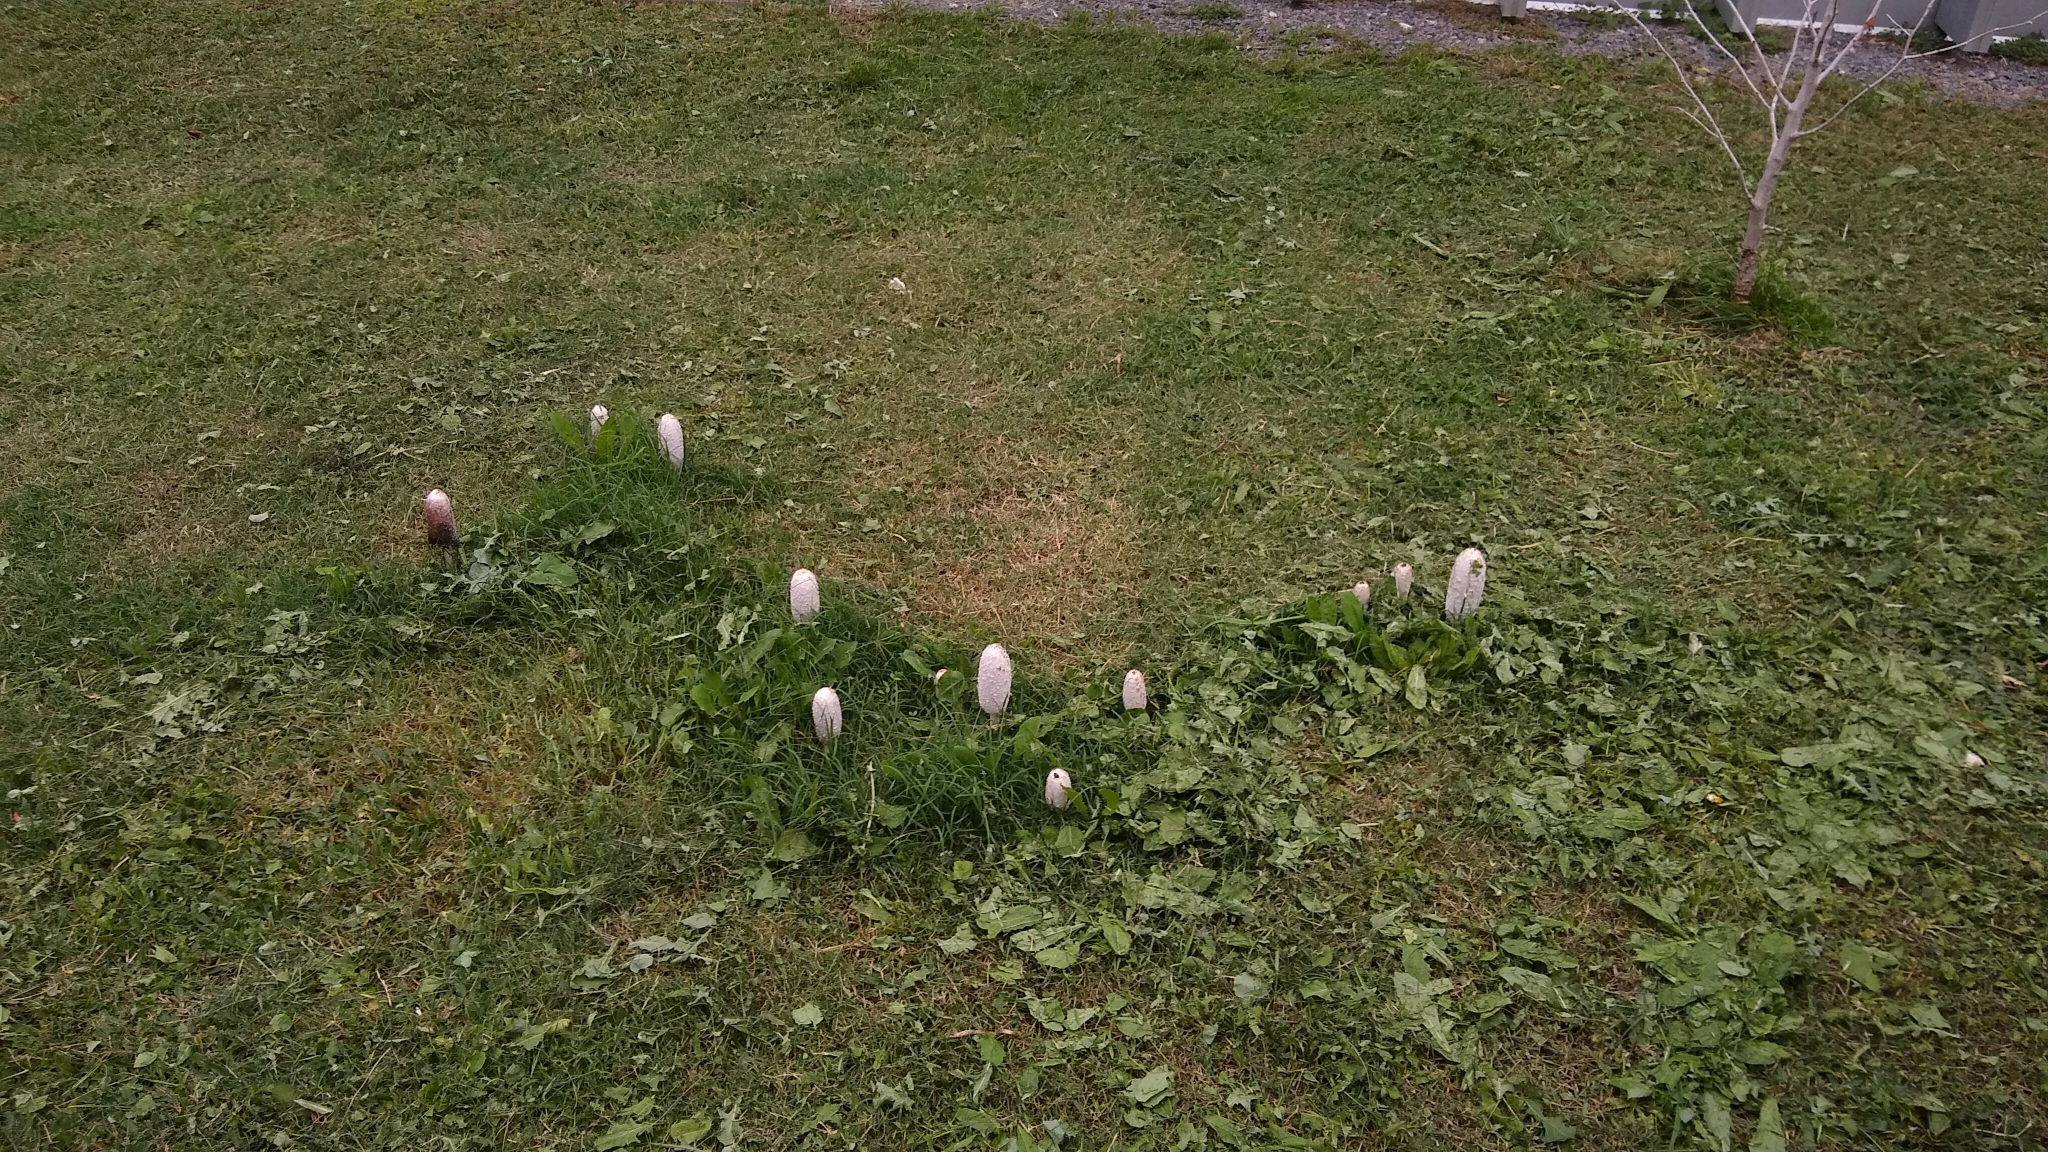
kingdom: Fungi
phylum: Basidiomycota
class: Agaricomycetes
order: Agaricales
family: Agaricaceae
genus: Coprinus
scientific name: Coprinus comatus
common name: Lawyer's wig
